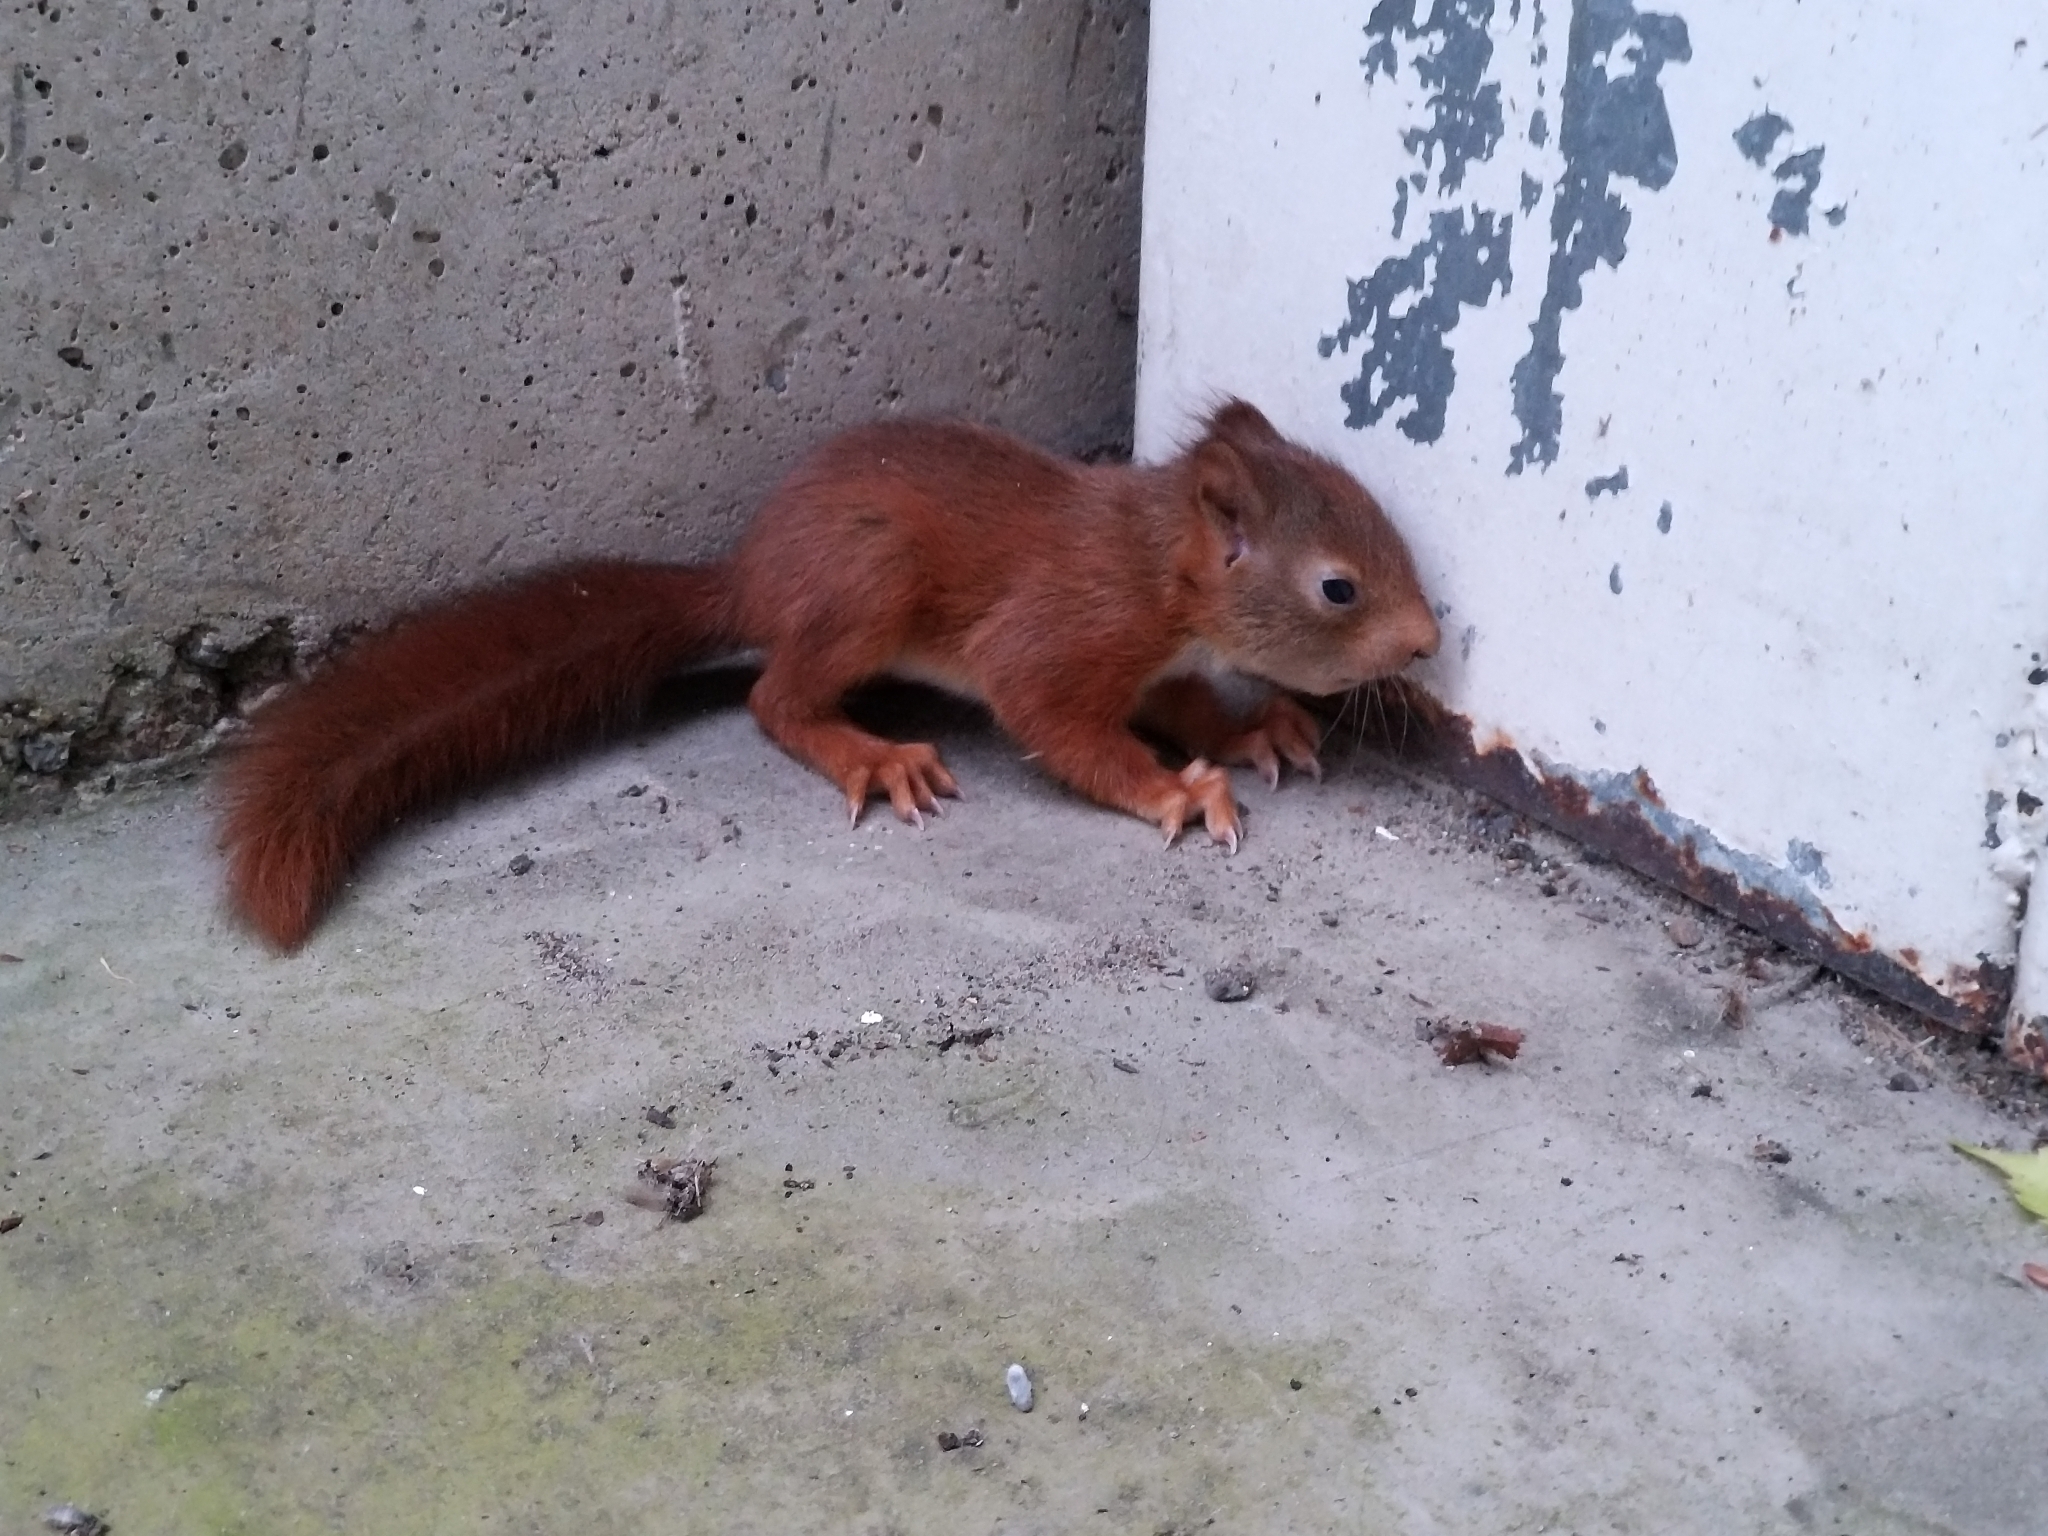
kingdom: Animalia
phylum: Chordata
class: Mammalia
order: Rodentia
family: Sciuridae
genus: Sciurus
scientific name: Sciurus vulgaris
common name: Eurasian red squirrel
